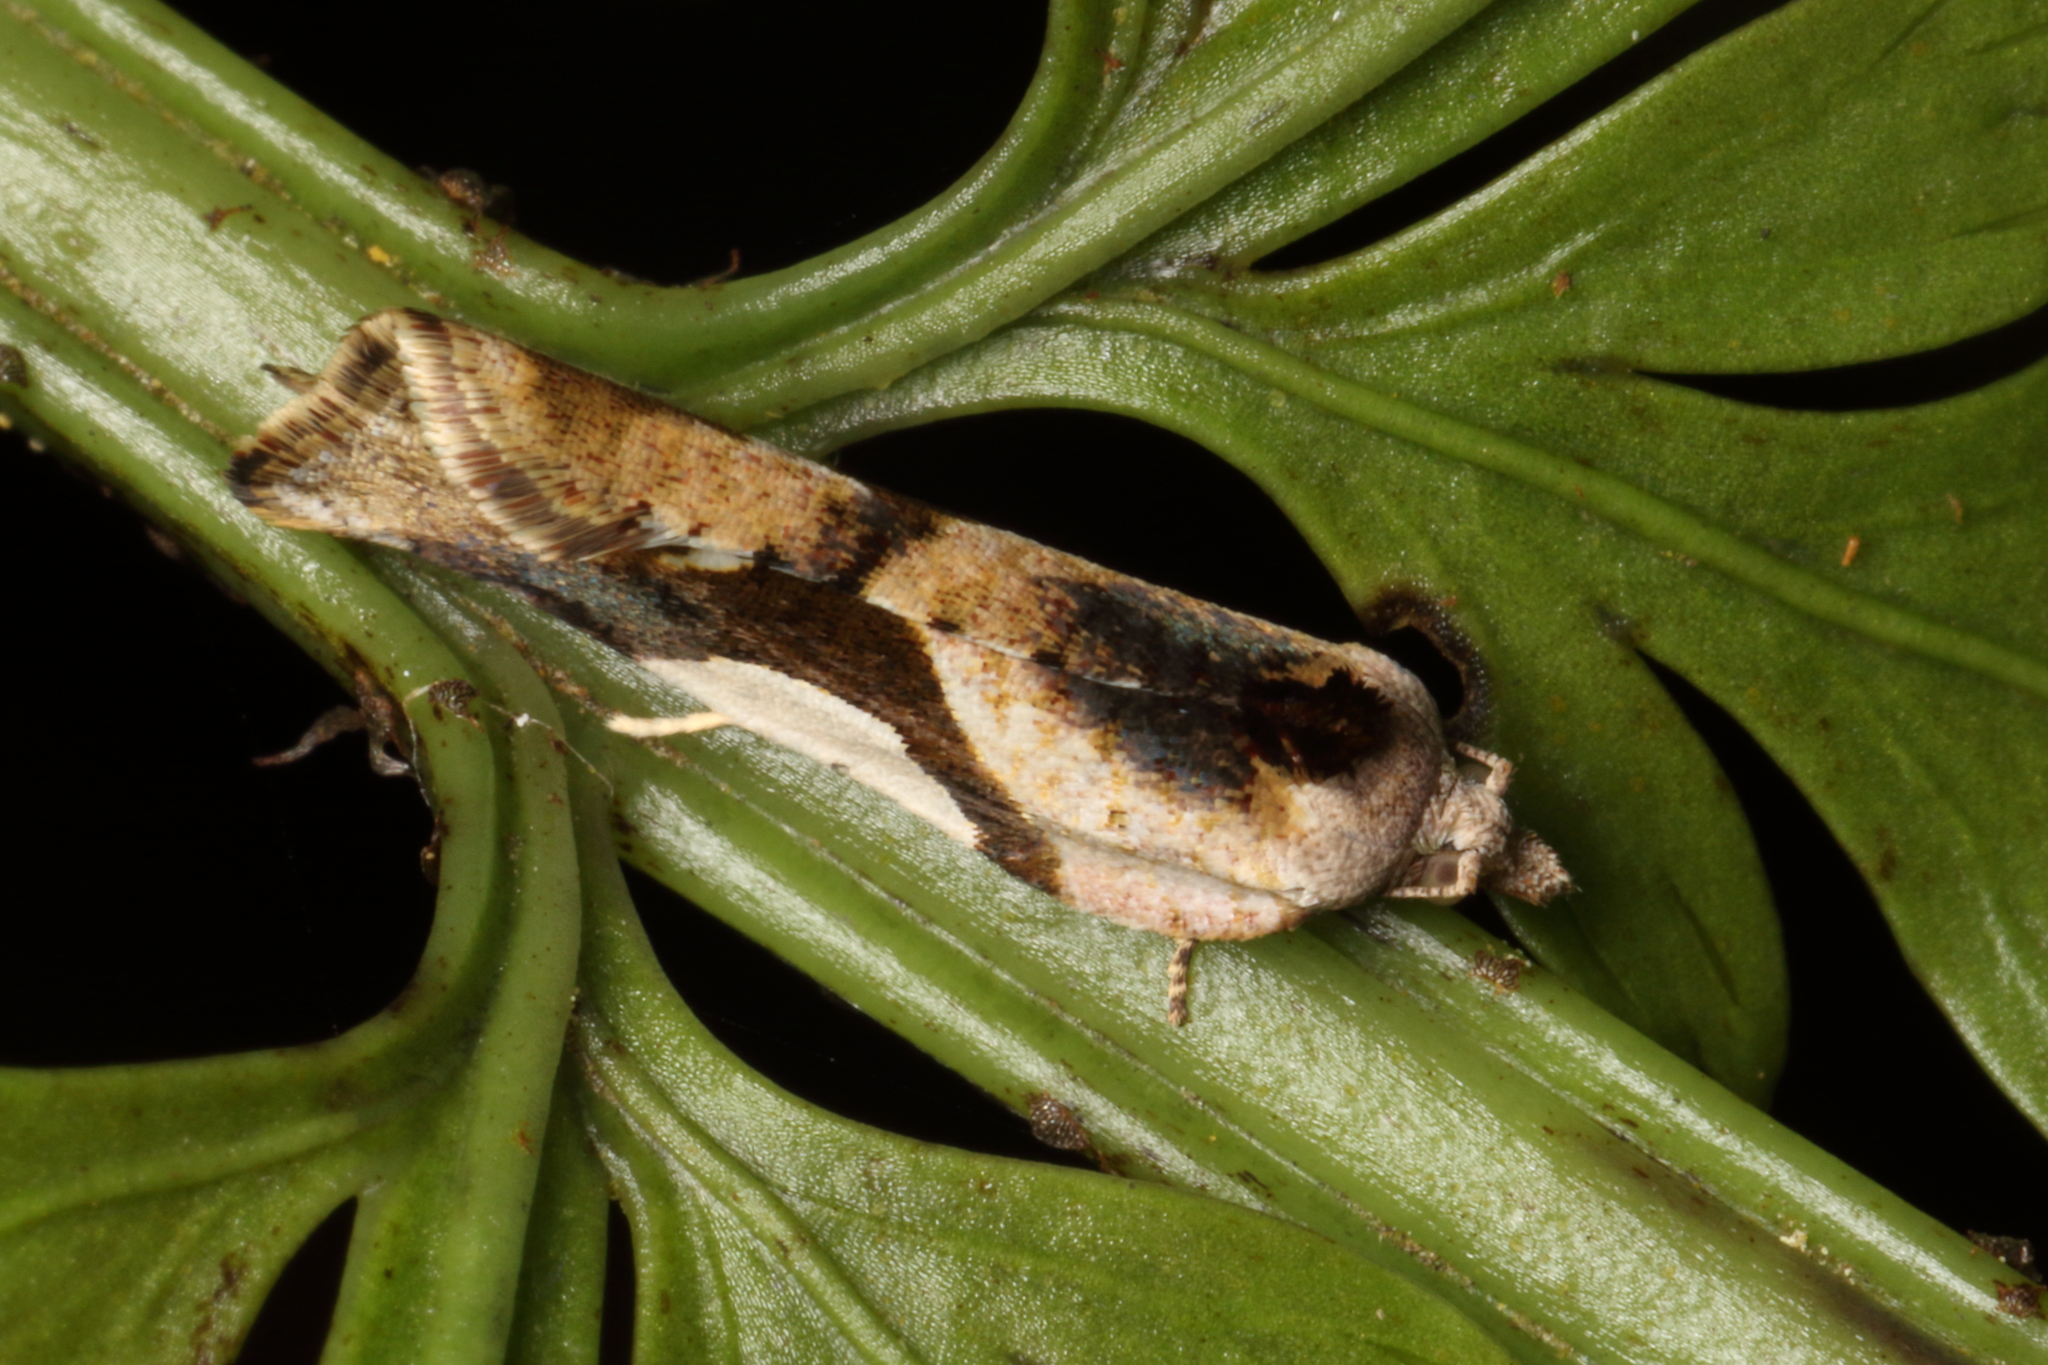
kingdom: Animalia
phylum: Arthropoda
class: Insecta
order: Lepidoptera
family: Tortricidae
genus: Pyrgotis
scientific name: Pyrgotis plagiatana
